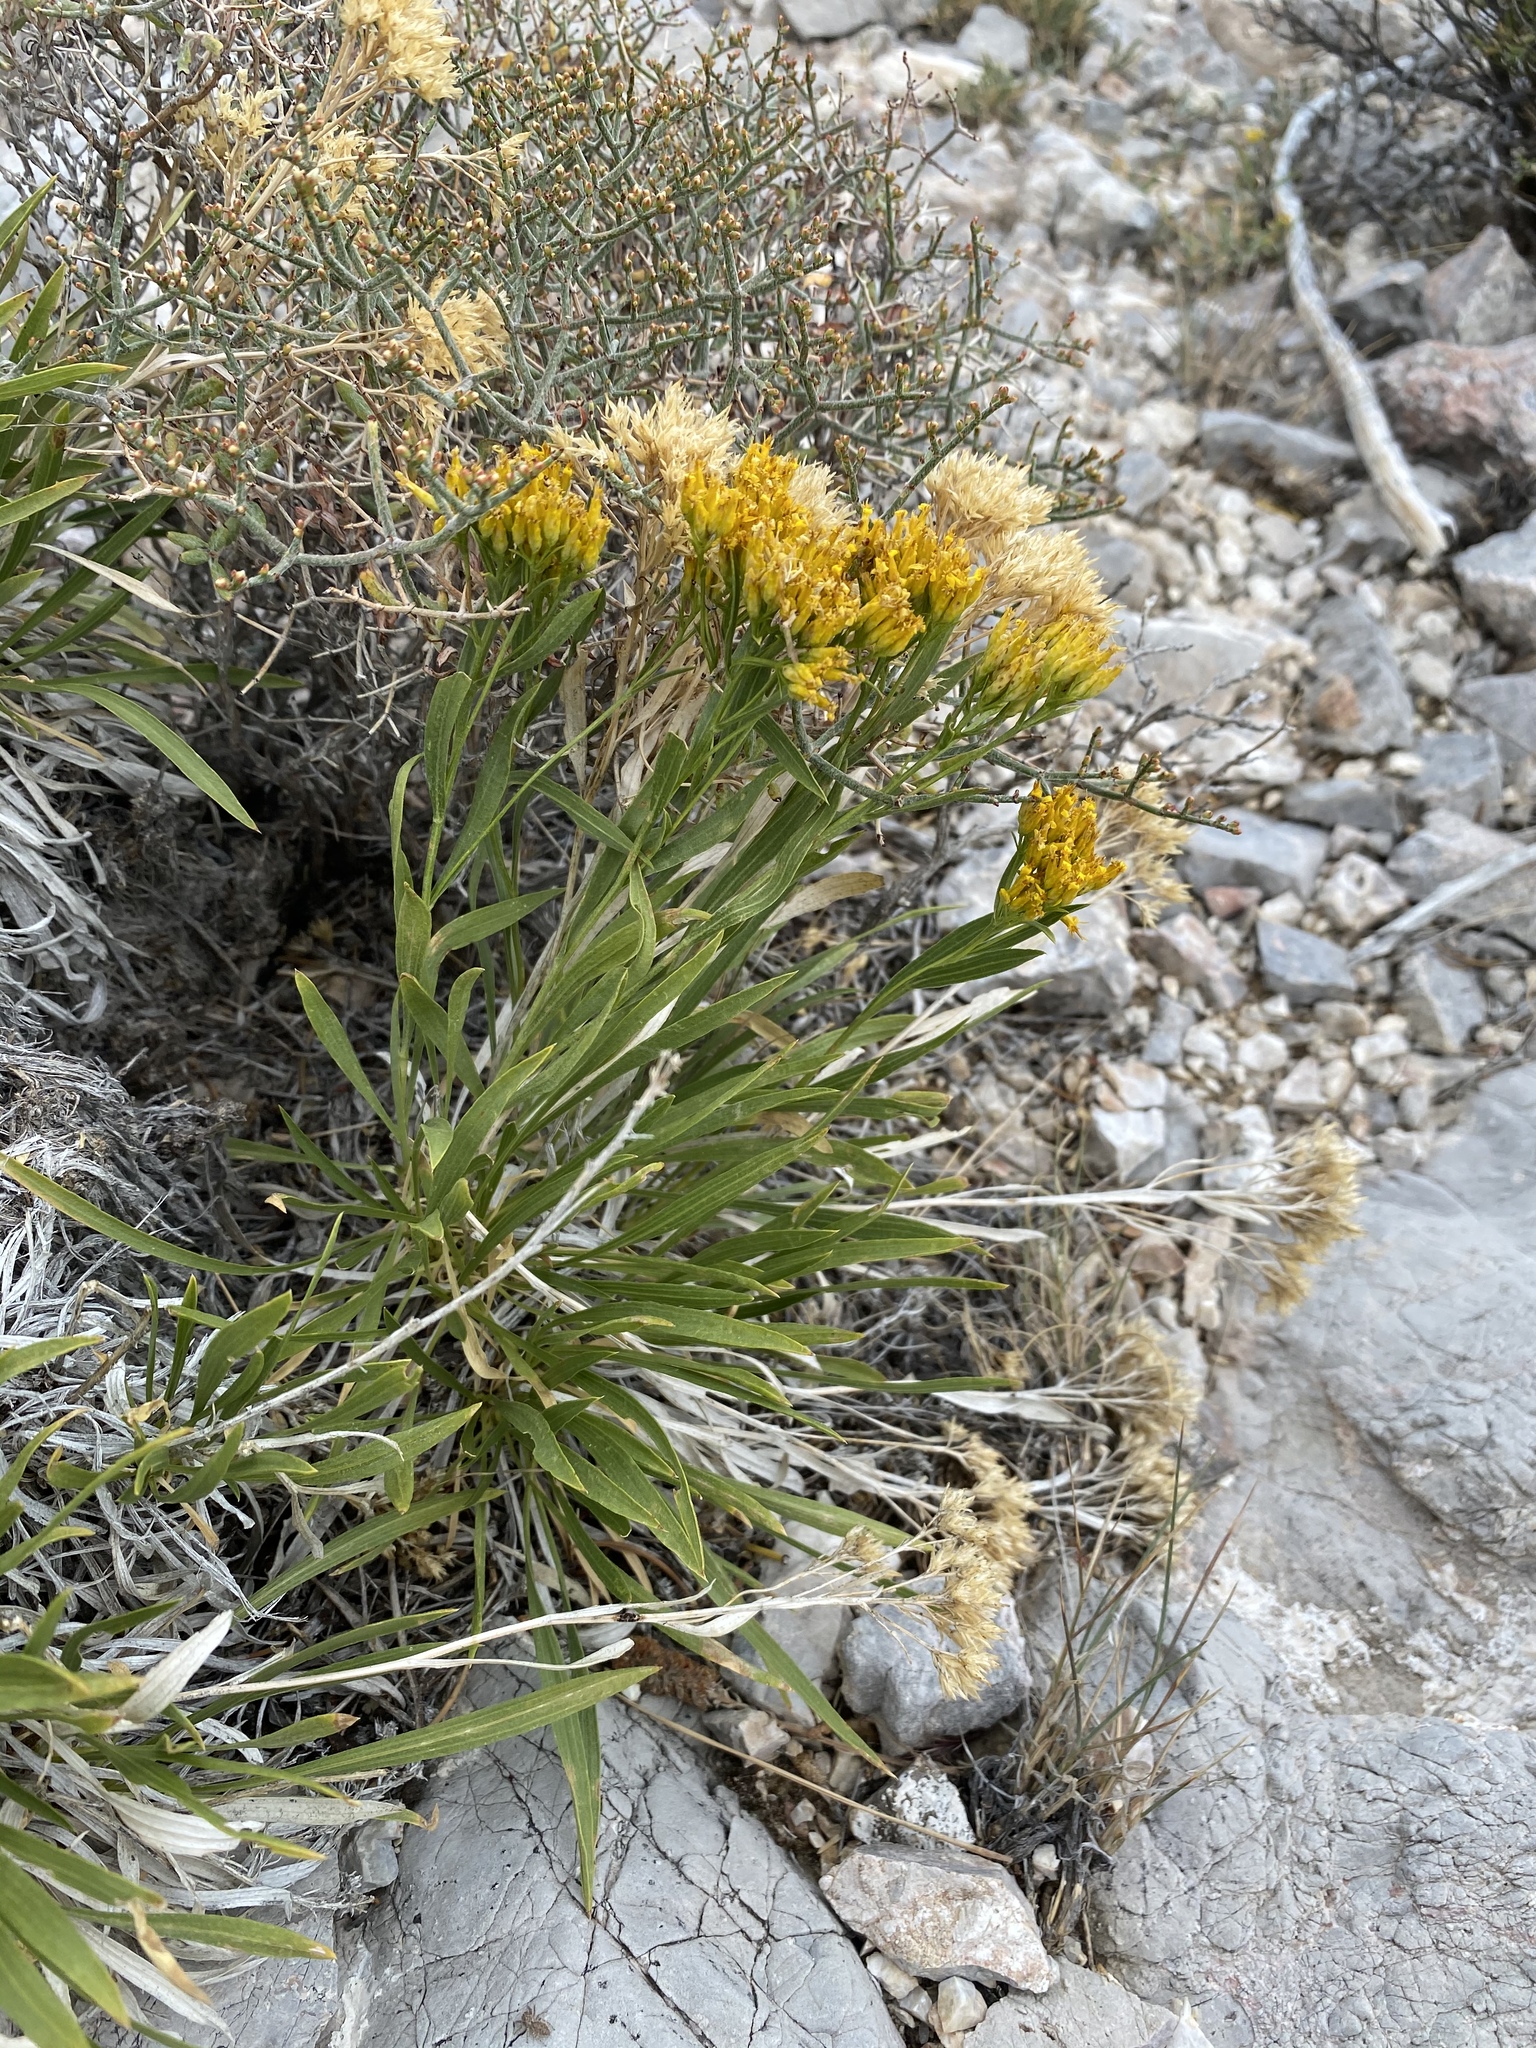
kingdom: Plantae
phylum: Tracheophyta
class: Magnoliopsida
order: Asterales
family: Asteraceae
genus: Petradoria
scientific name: Petradoria pumila
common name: Rock-goldenrod
